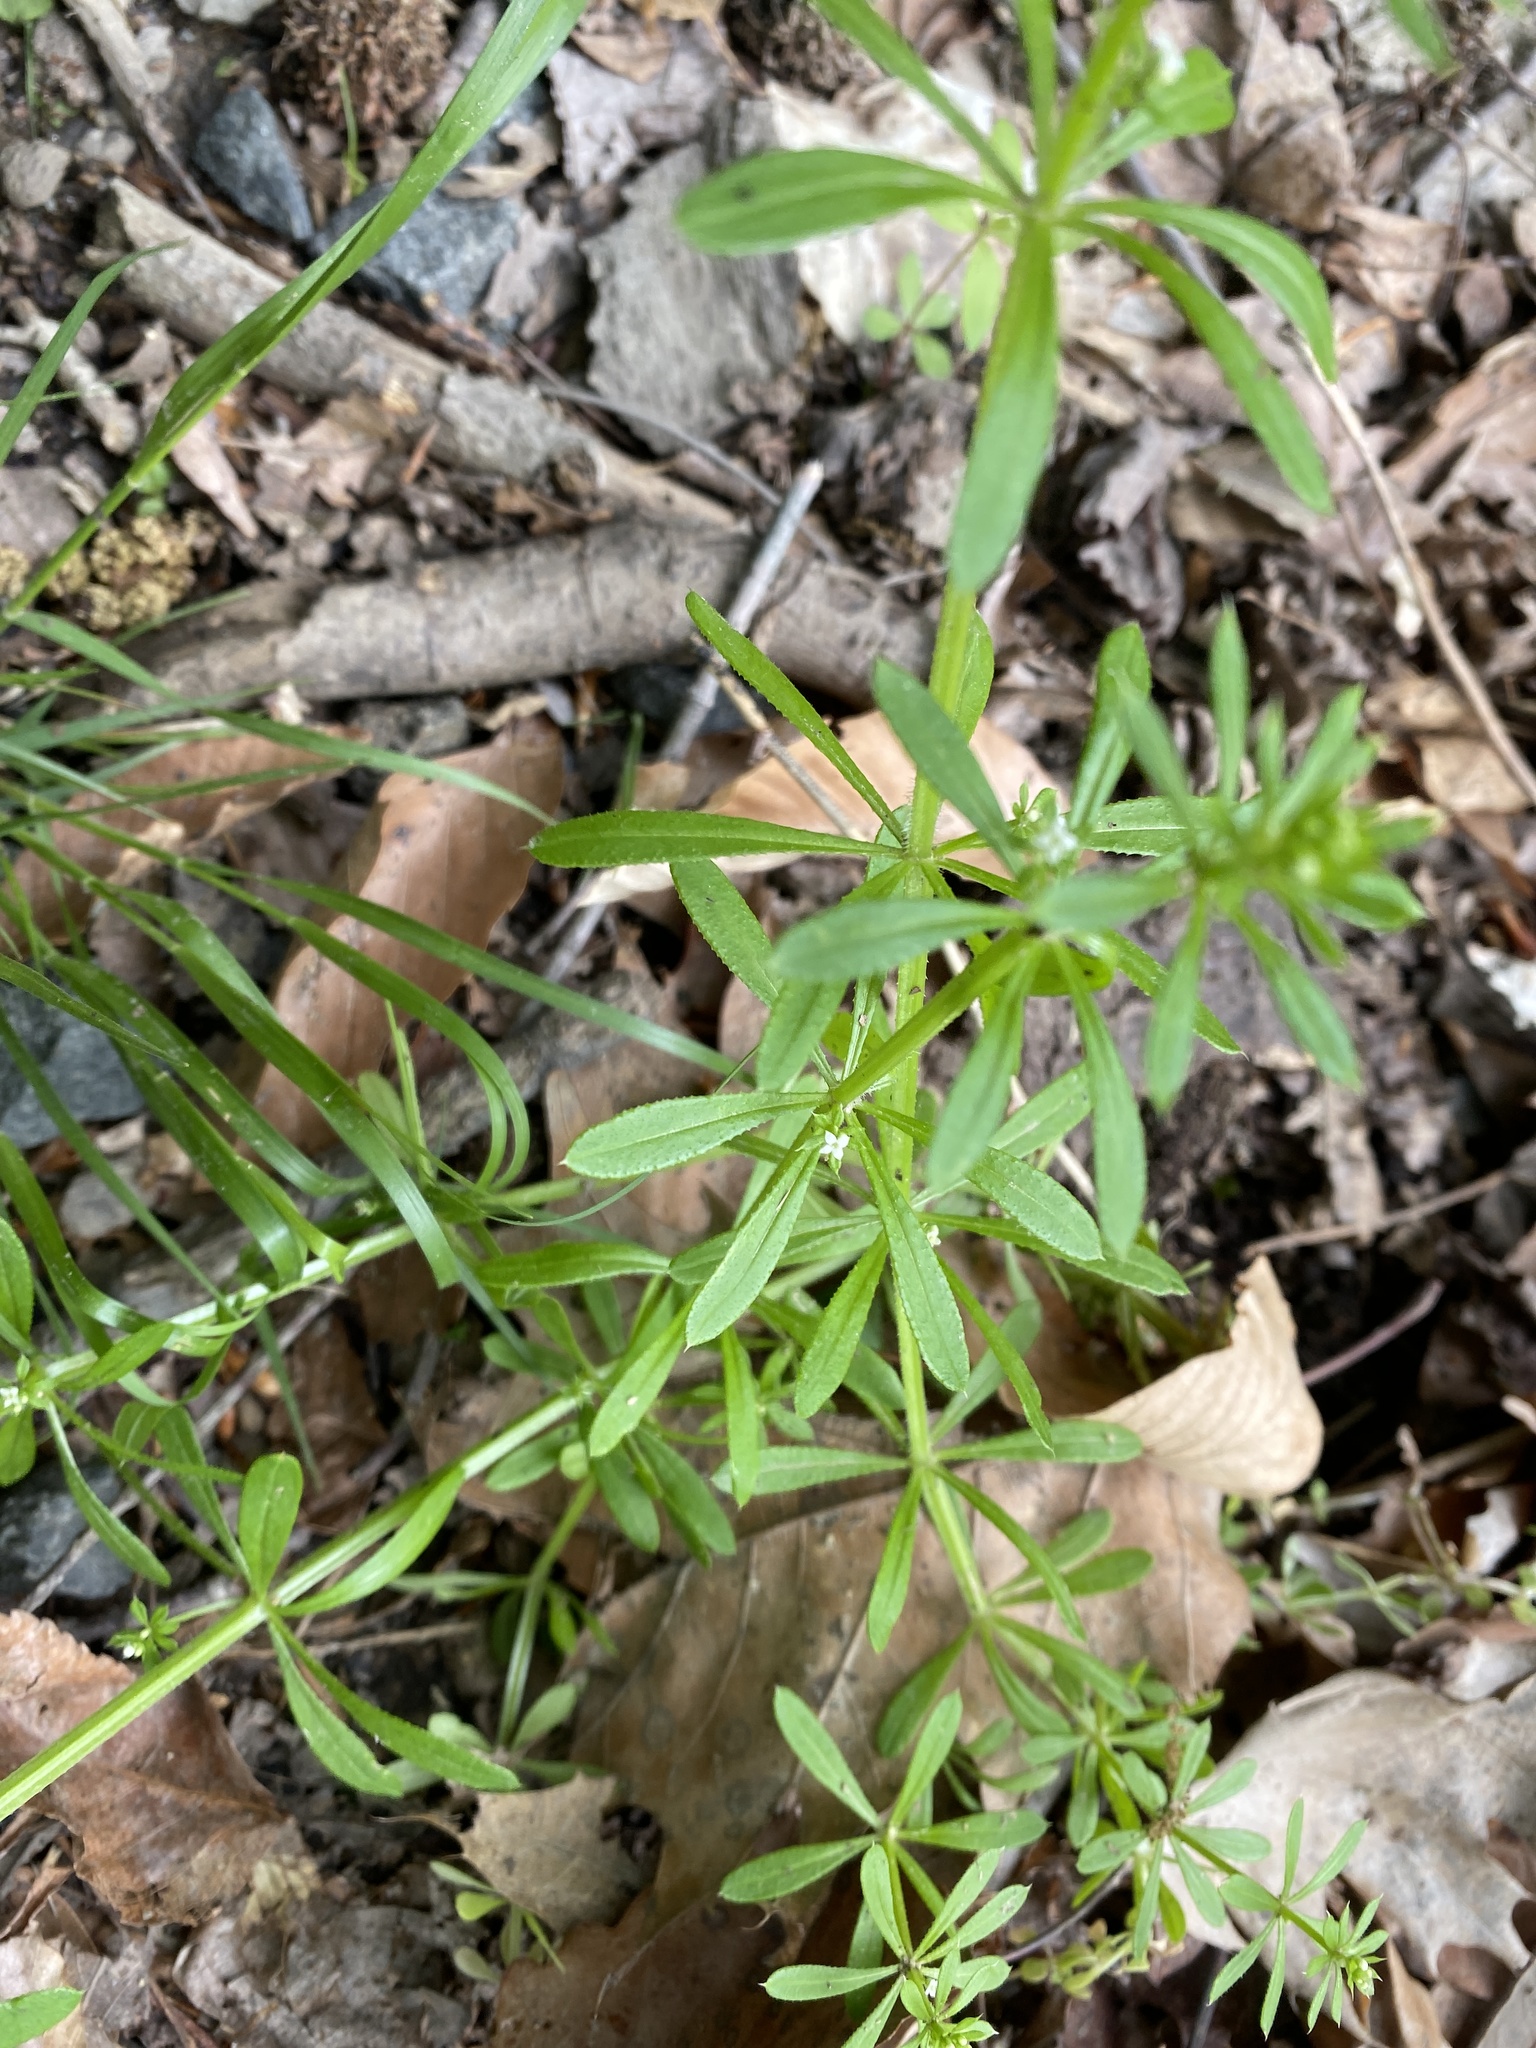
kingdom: Plantae
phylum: Tracheophyta
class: Magnoliopsida
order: Gentianales
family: Rubiaceae
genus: Galium
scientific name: Galium aparine
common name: Cleavers
